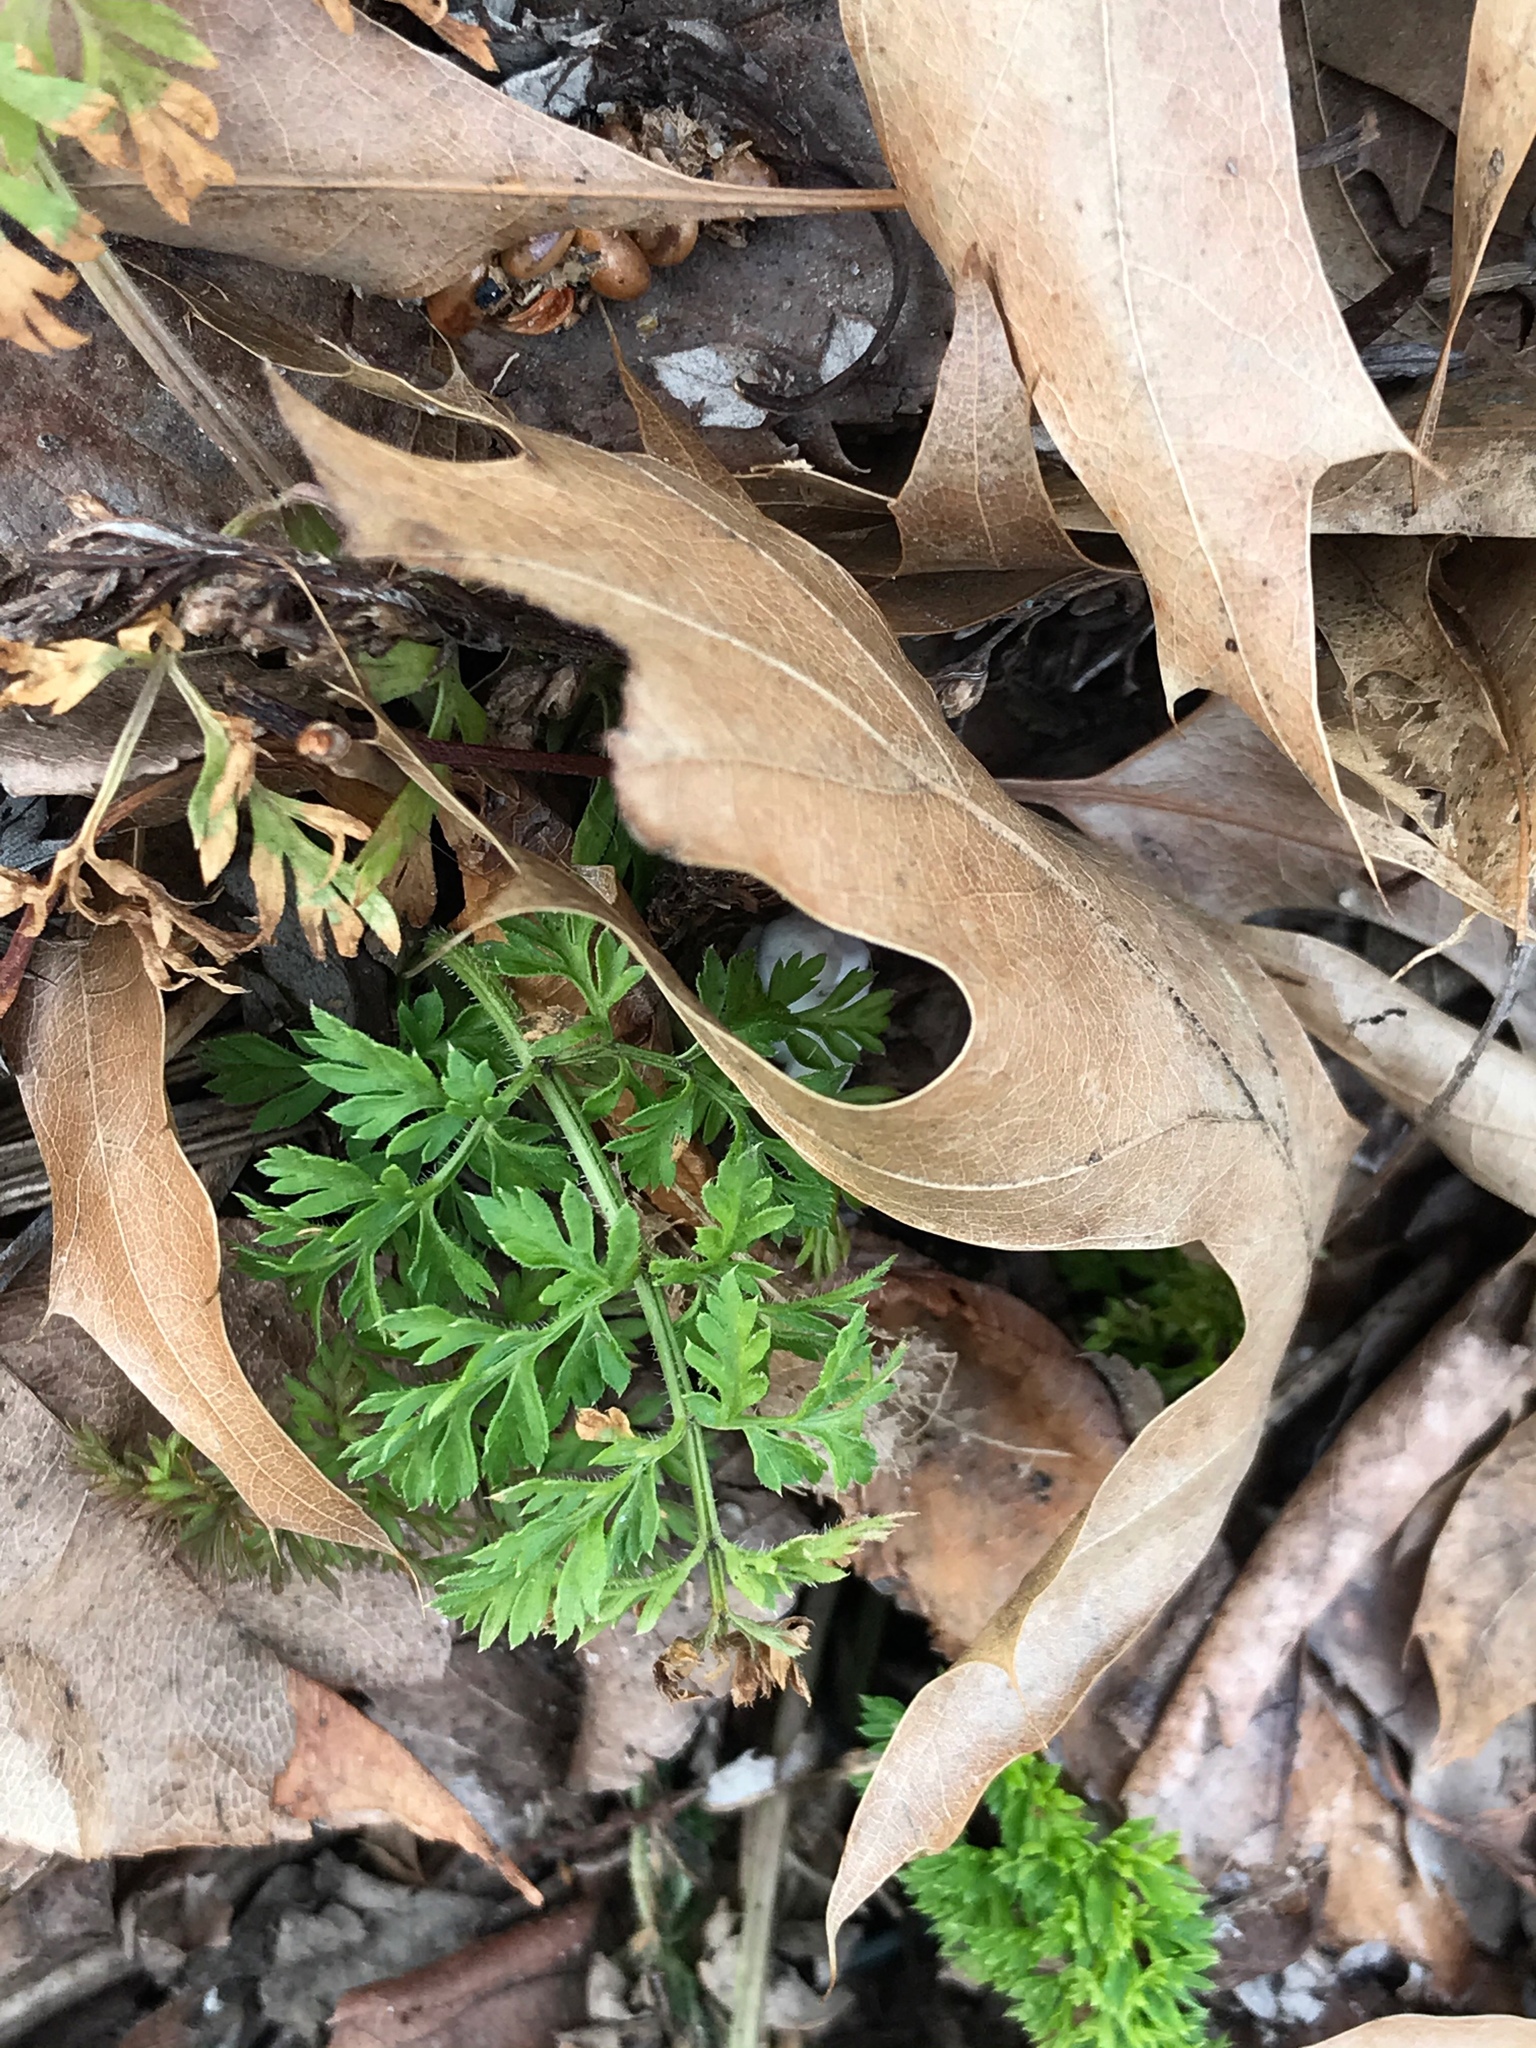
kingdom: Plantae
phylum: Tracheophyta
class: Magnoliopsida
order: Apiales
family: Apiaceae
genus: Daucus
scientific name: Daucus carota
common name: Wild carrot
